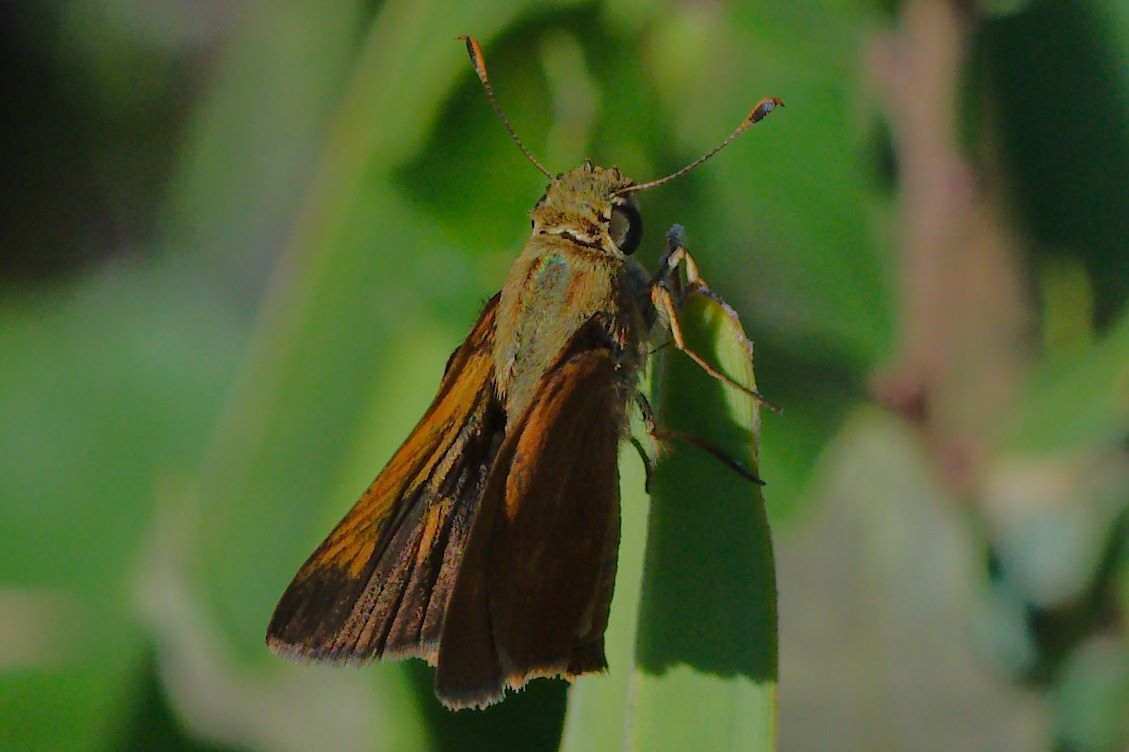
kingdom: Animalia
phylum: Arthropoda
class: Insecta
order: Lepidoptera
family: Hesperiidae
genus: Polites
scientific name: Polites otho
